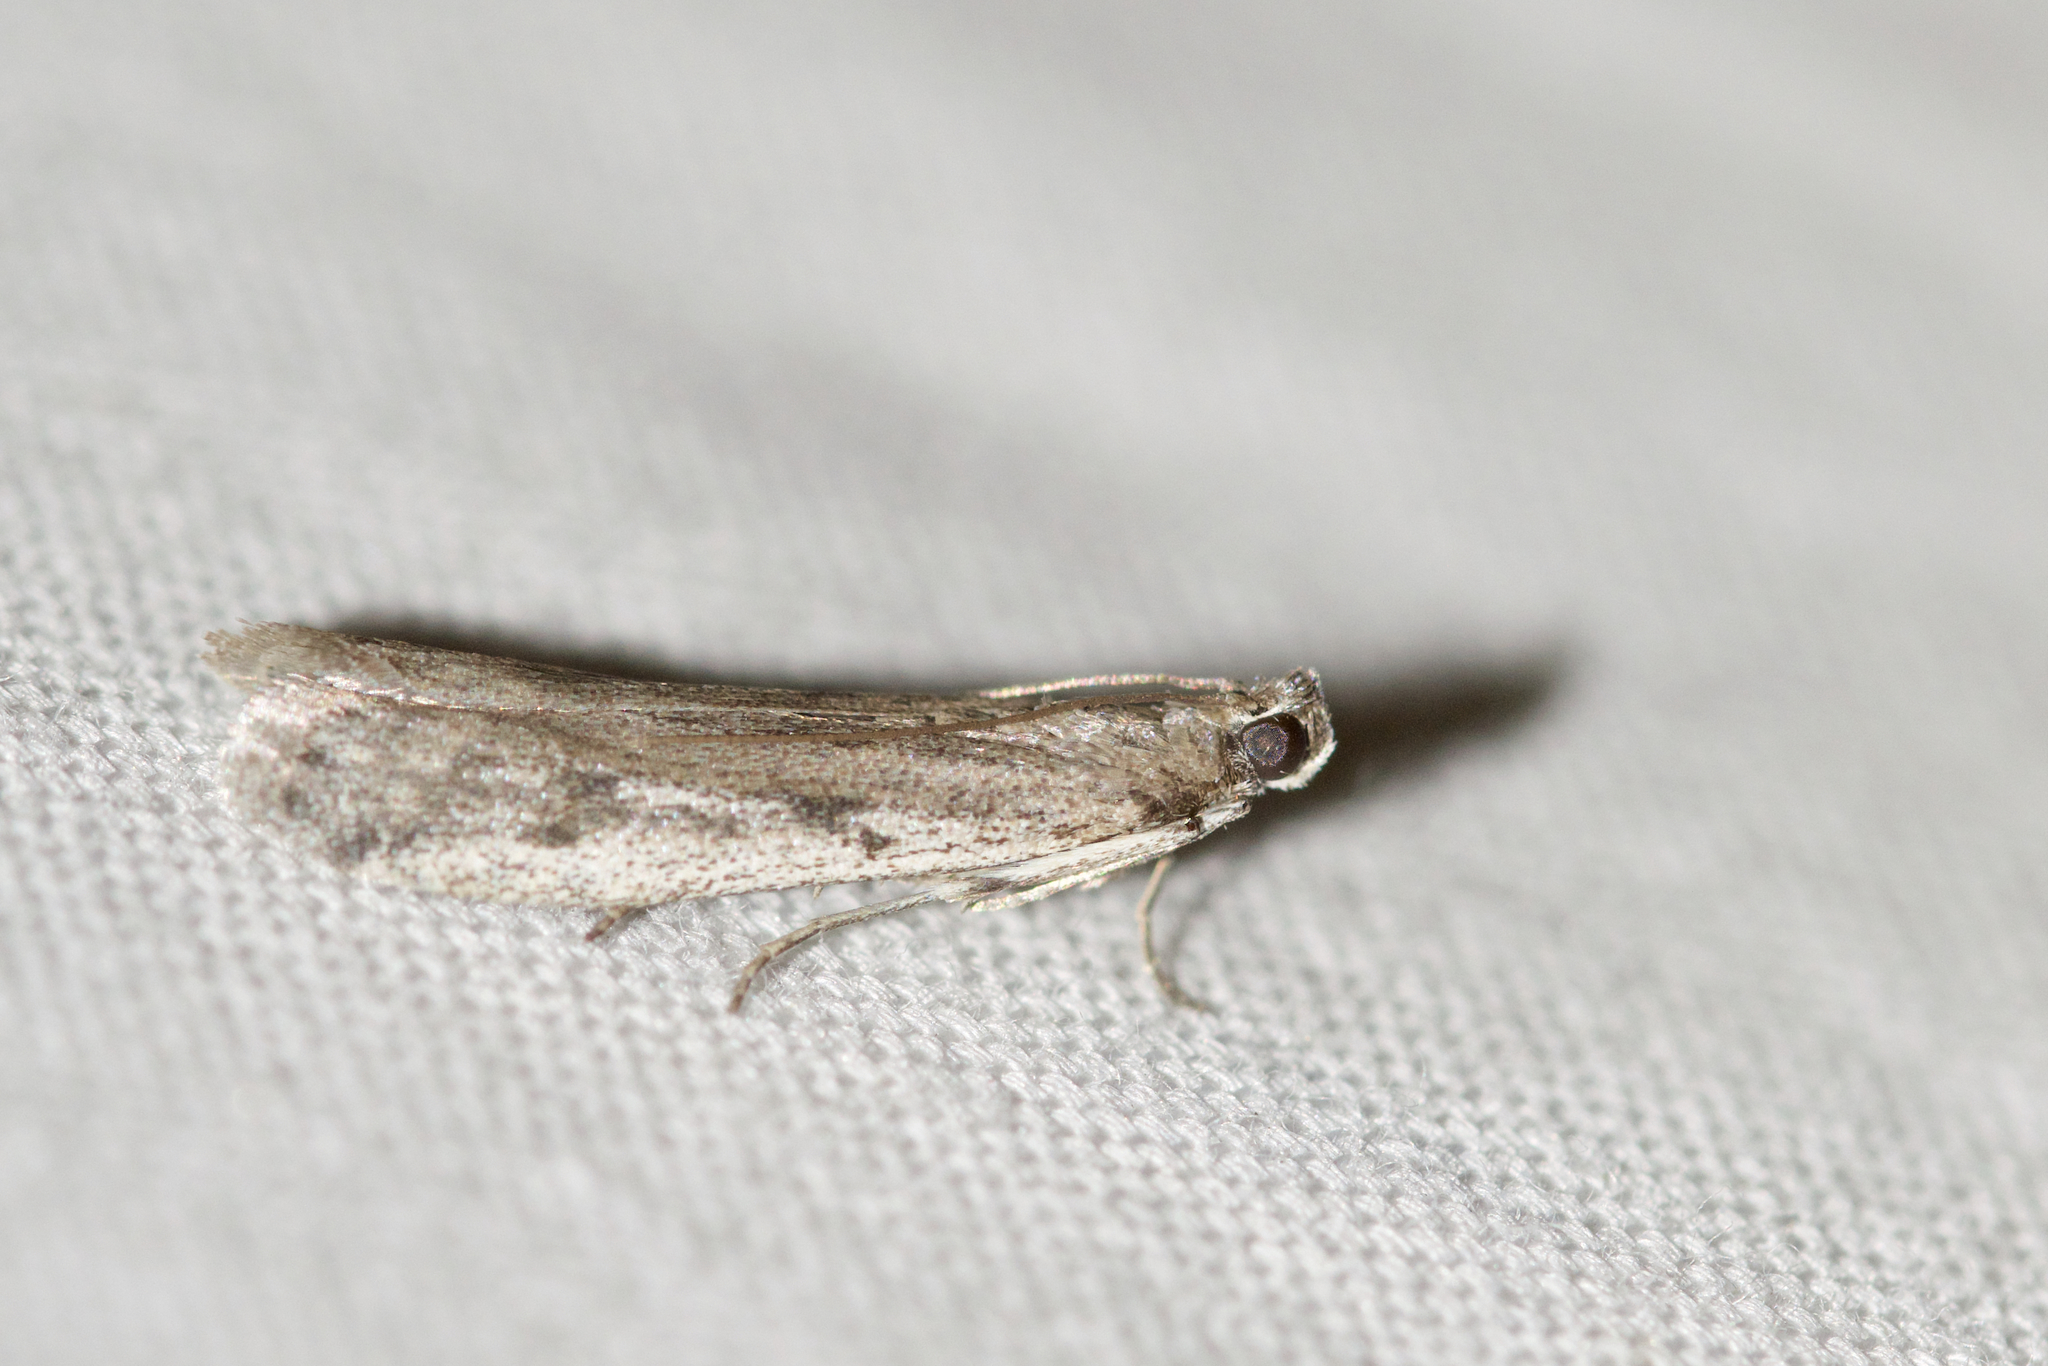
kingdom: Animalia
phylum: Arthropoda
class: Insecta
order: Lepidoptera
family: Pyralidae
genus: Phycitodes
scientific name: Phycitodes mucidellus
